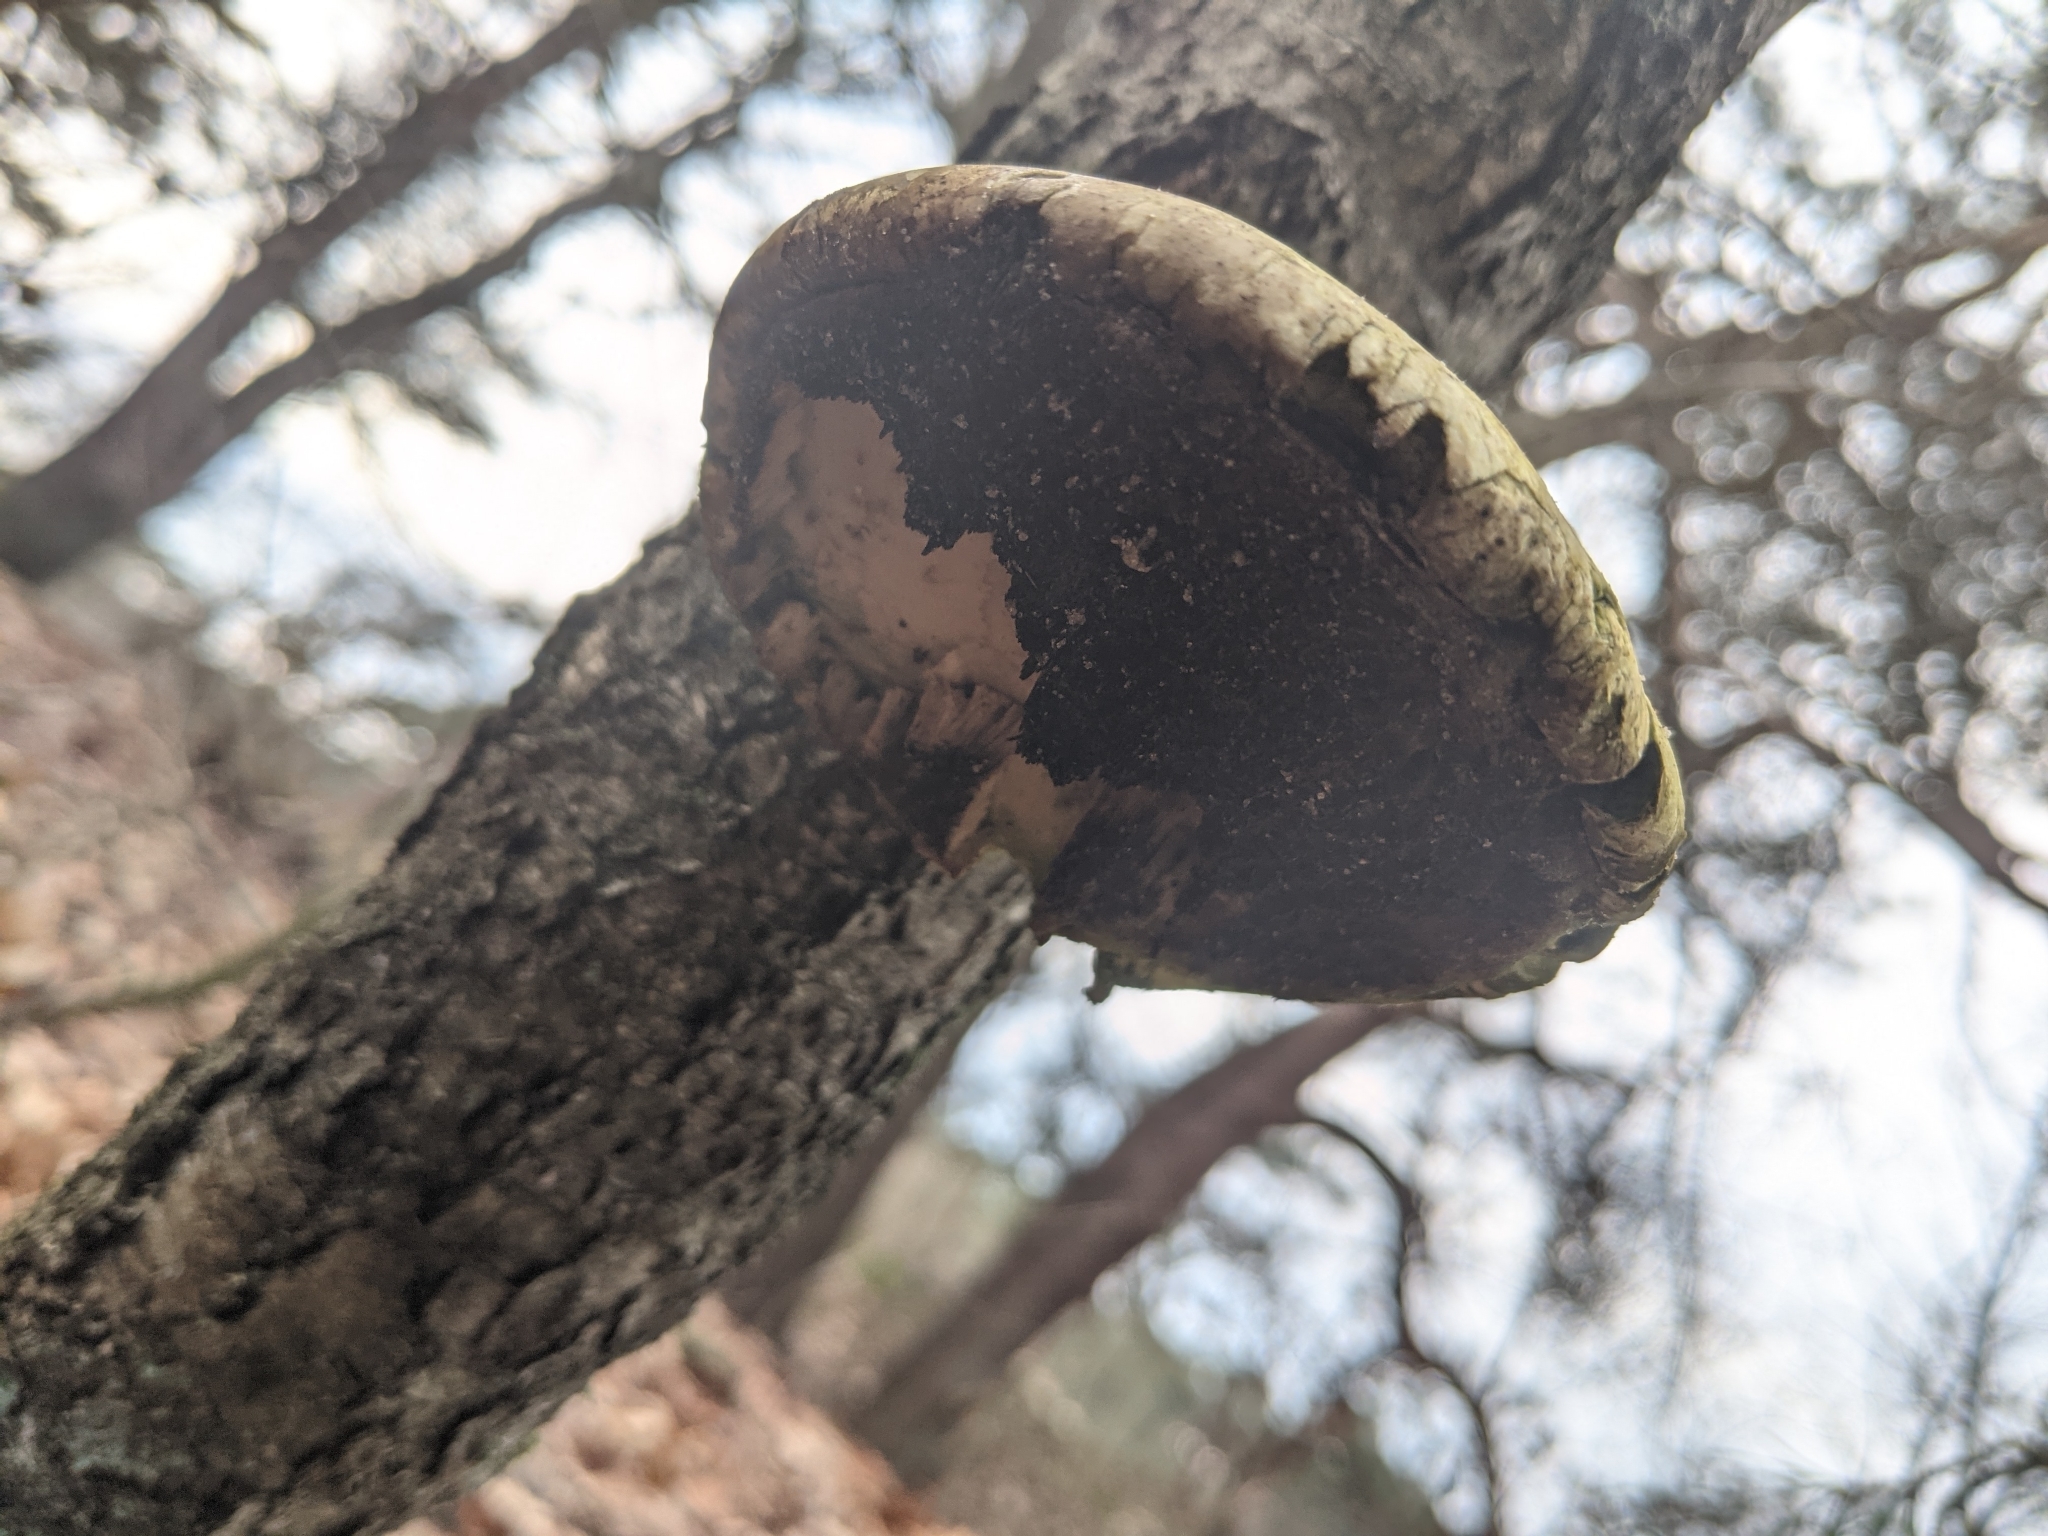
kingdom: Fungi
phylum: Basidiomycota
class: Agaricomycetes
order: Polyporales
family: Fomitopsidaceae
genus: Fomitopsis
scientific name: Fomitopsis betulina
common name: Birch polypore
